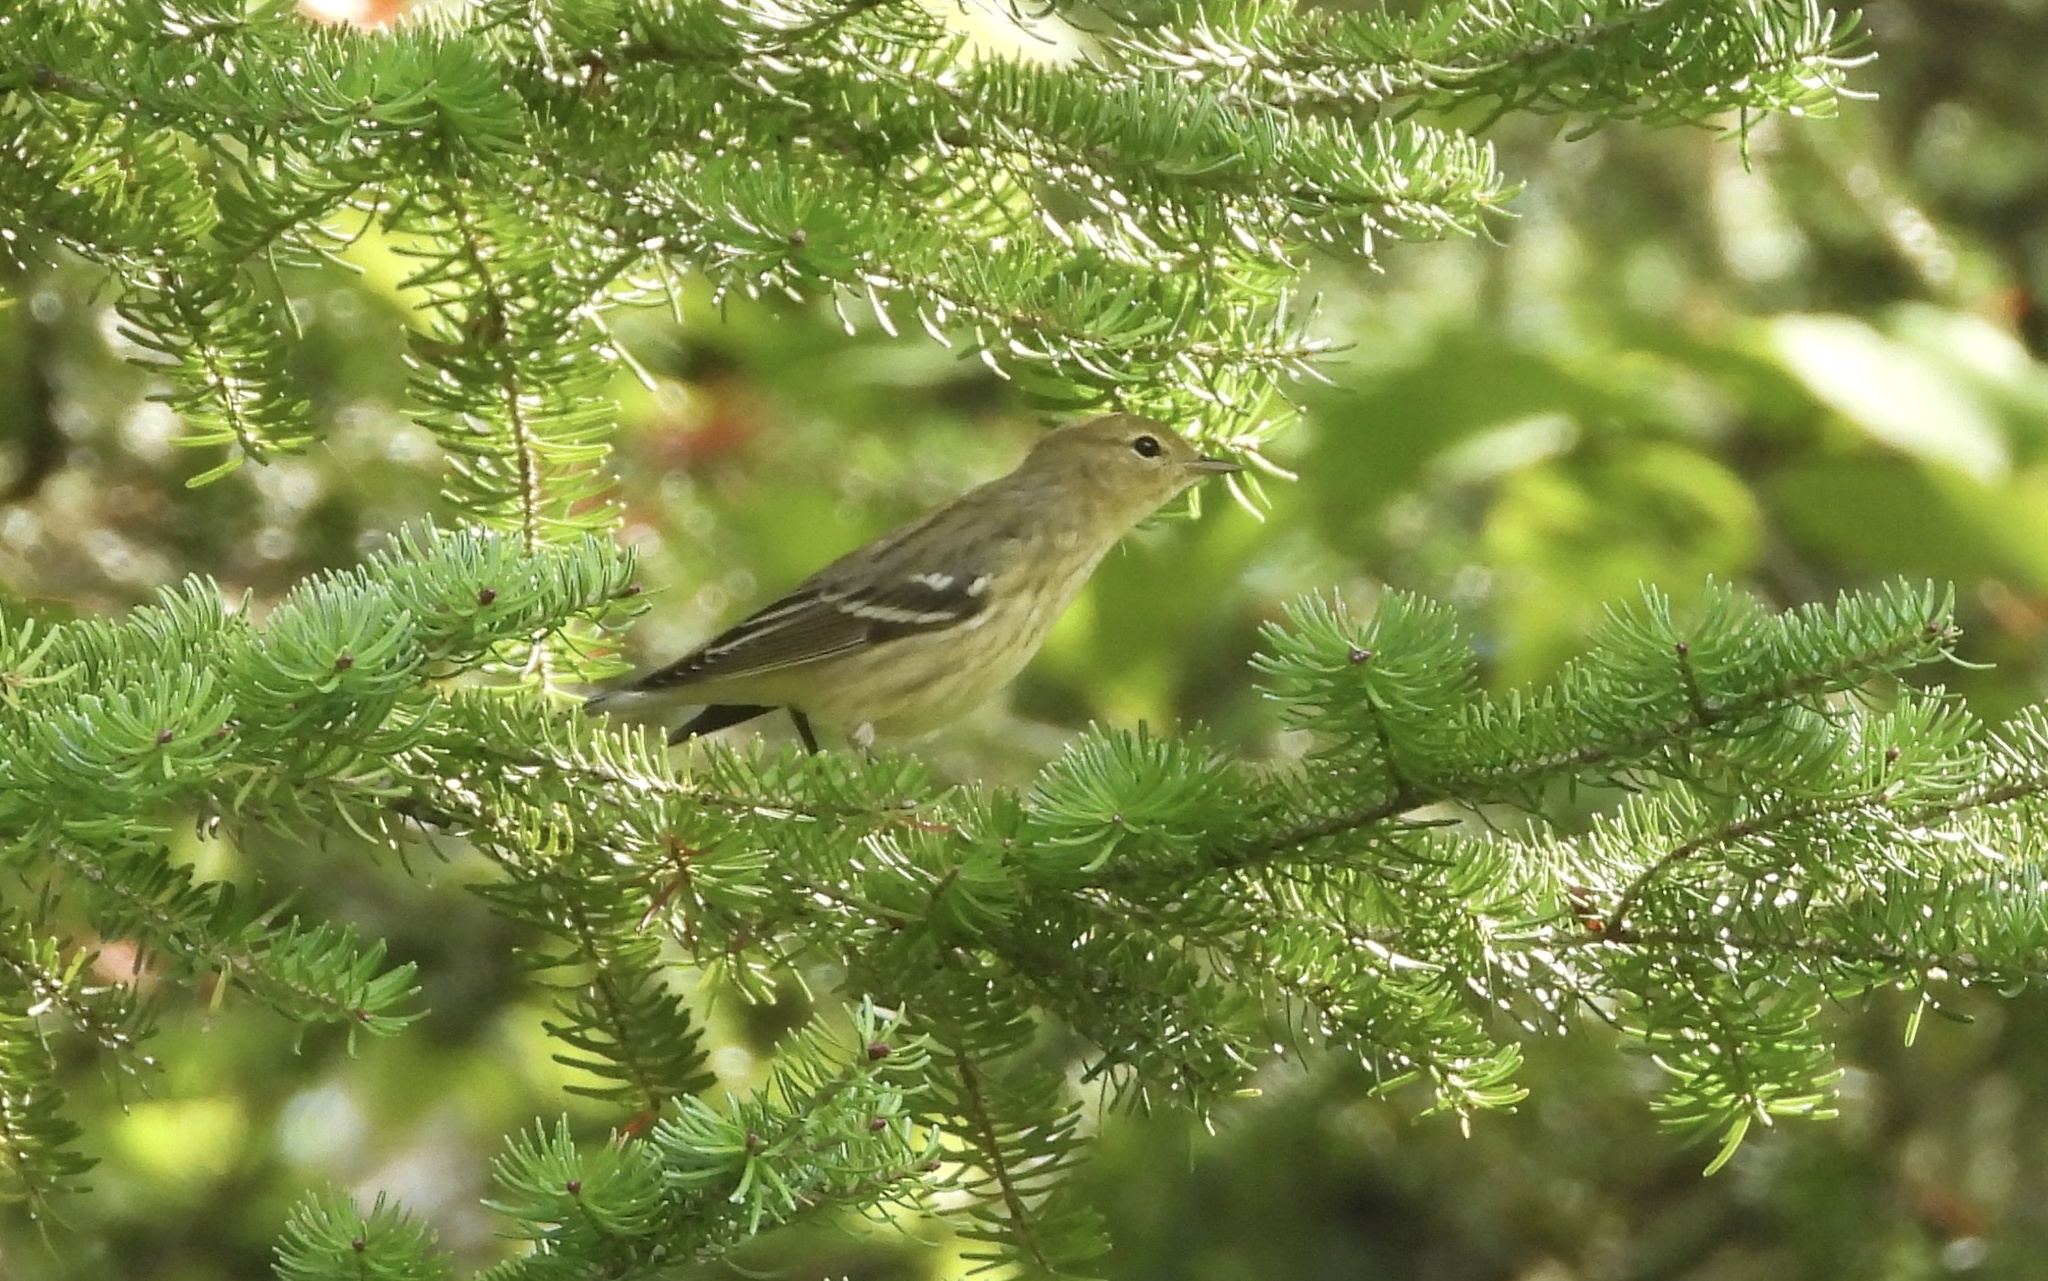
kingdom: Animalia
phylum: Chordata
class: Aves
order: Passeriformes
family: Parulidae
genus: Setophaga
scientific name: Setophaga striata
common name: Blackpoll warbler
